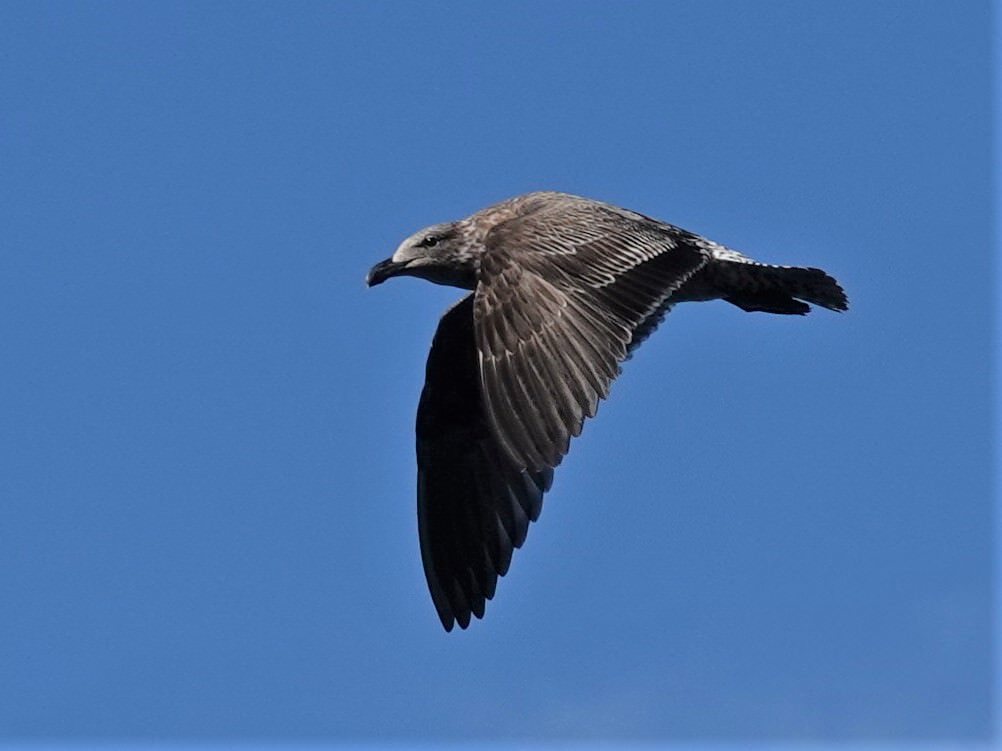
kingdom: Animalia
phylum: Chordata
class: Aves
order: Charadriiformes
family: Laridae
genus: Larus
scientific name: Larus dominicanus
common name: Kelp gull
